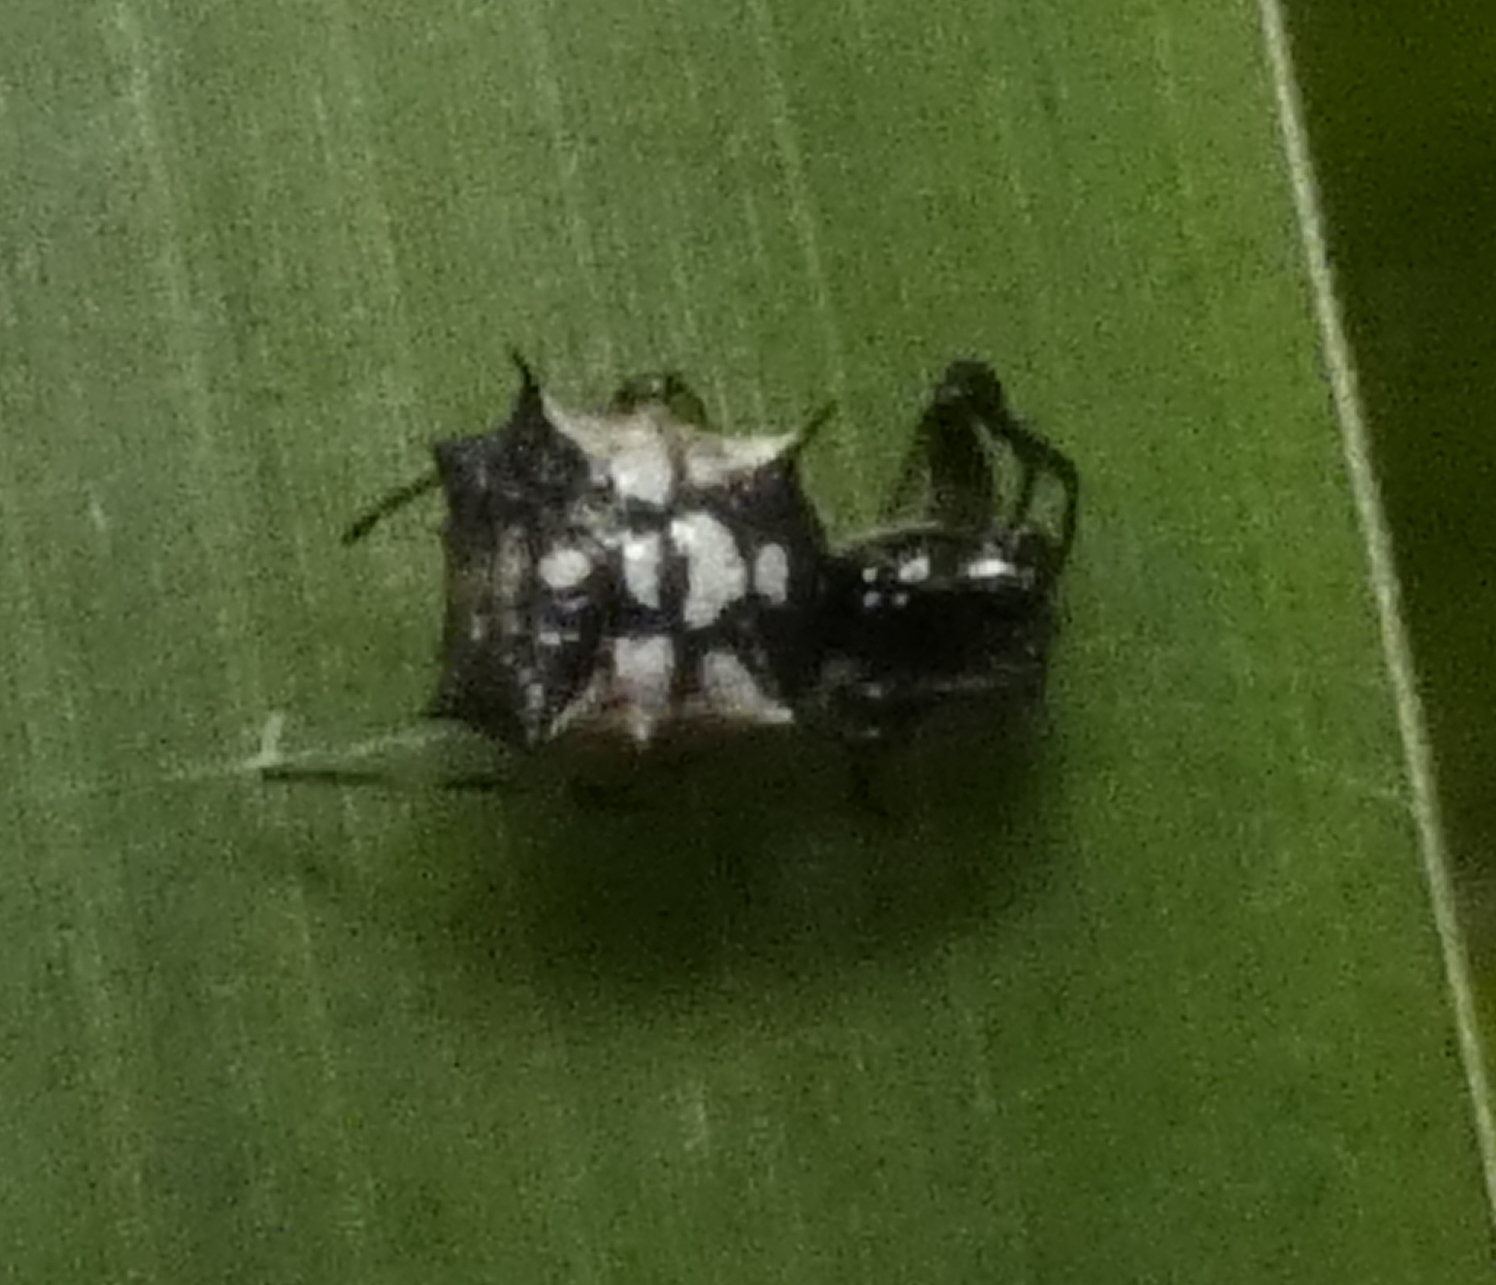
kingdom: Animalia
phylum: Arthropoda
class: Arachnida
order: Araneae
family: Araneidae
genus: Micrathena
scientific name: Micrathena picta
